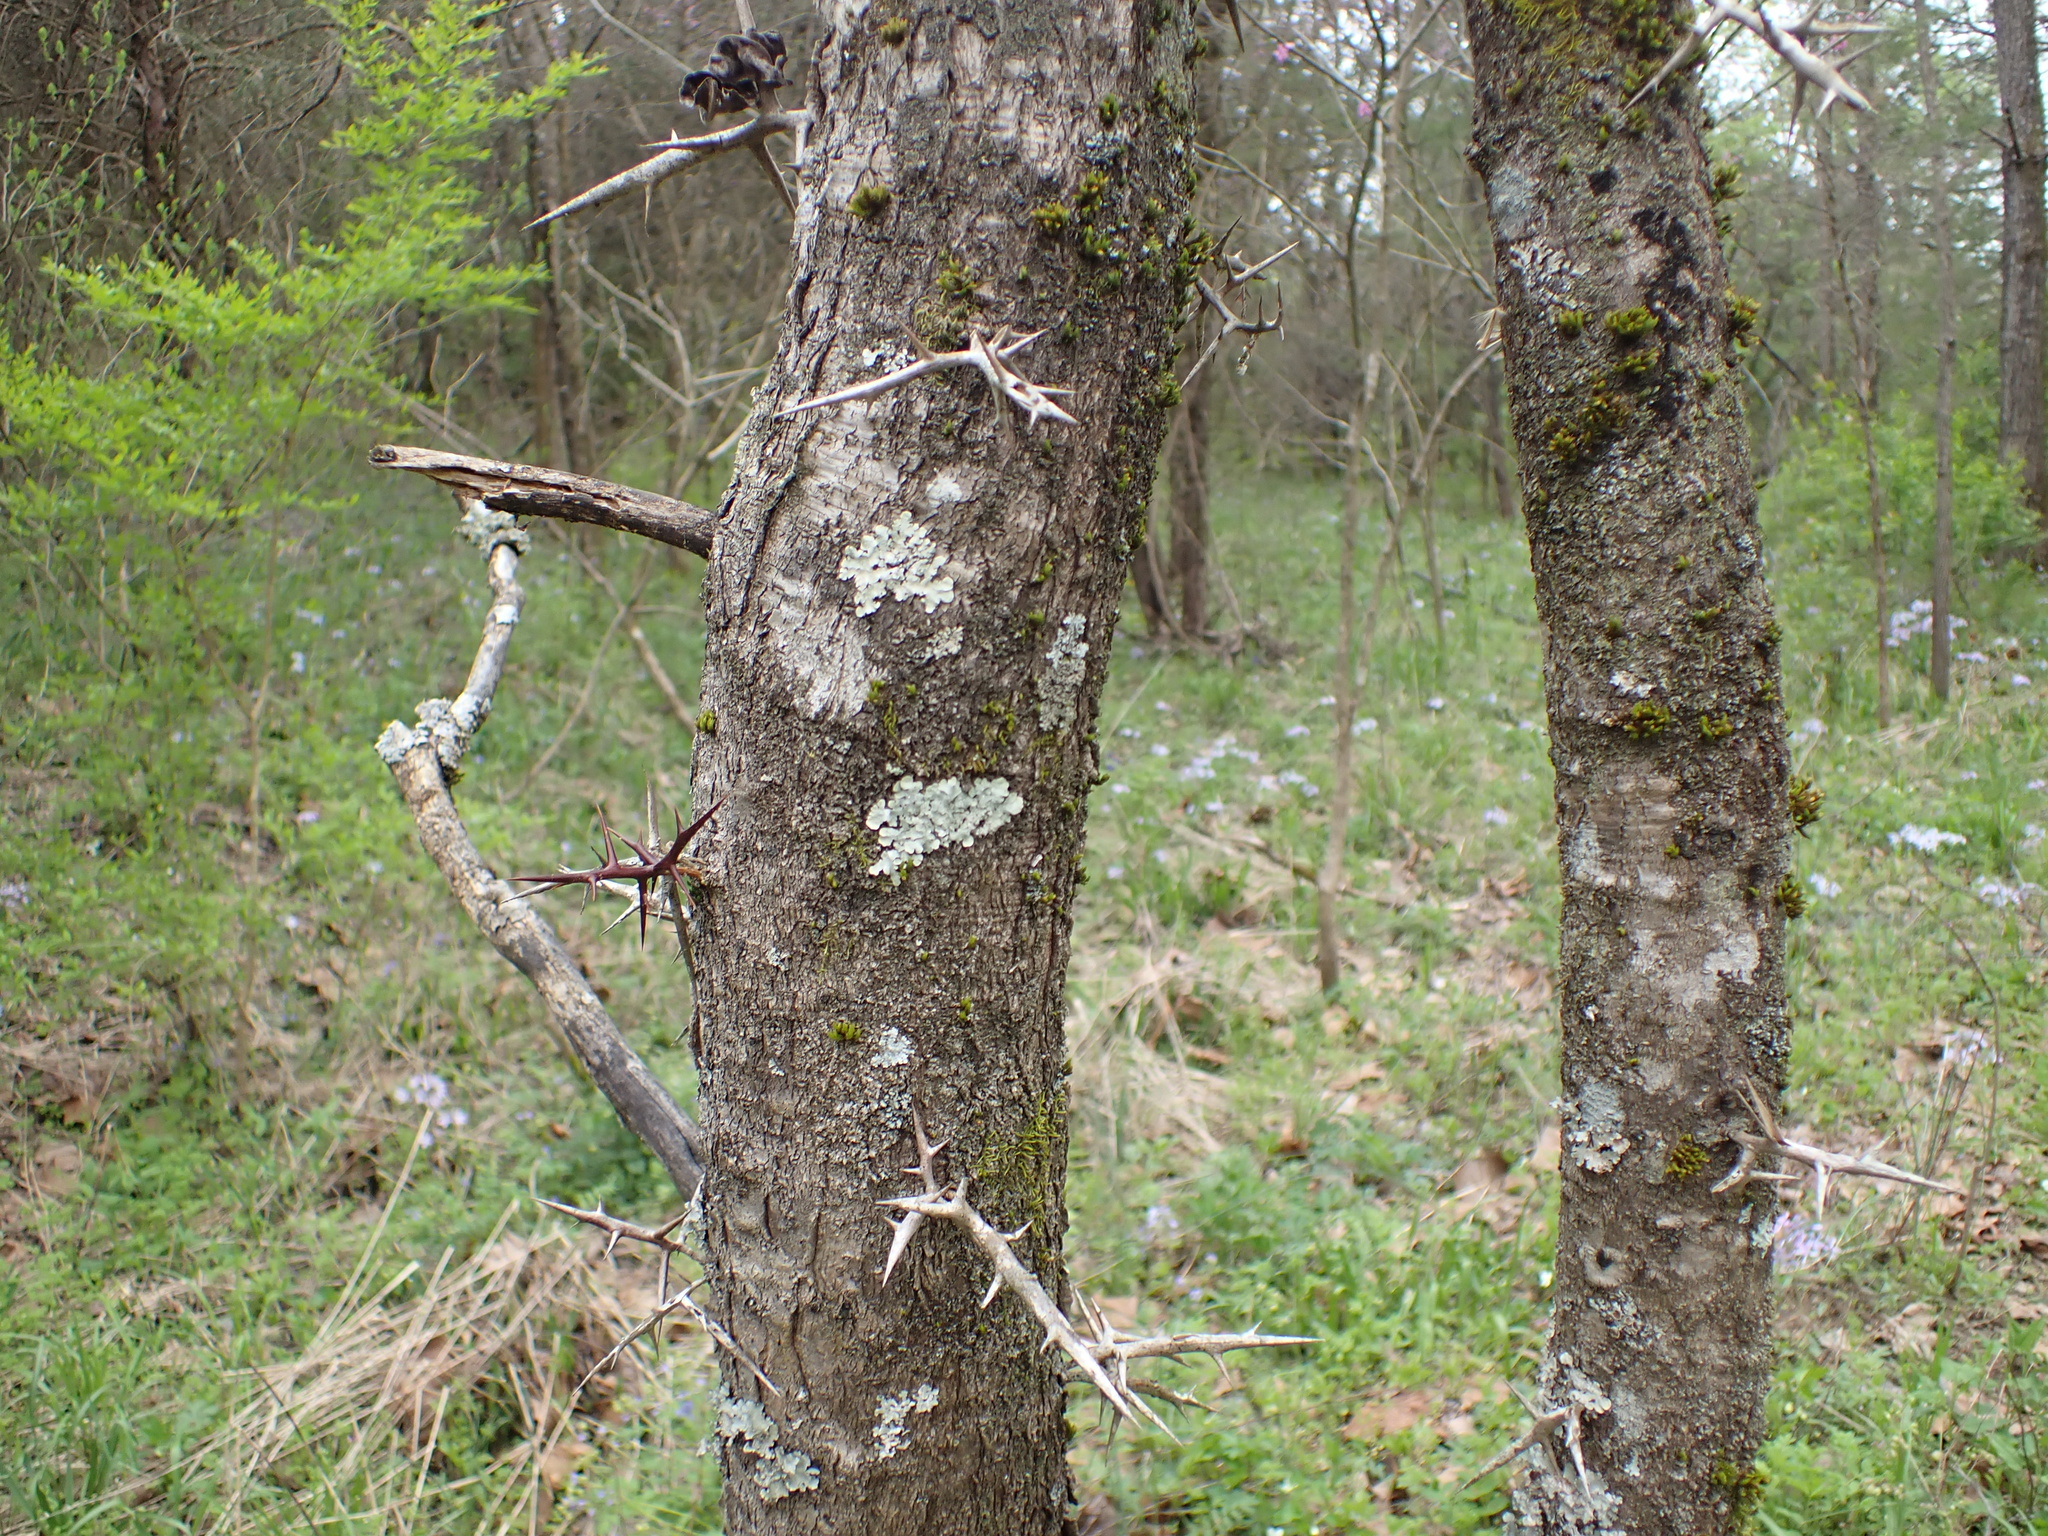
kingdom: Plantae
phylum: Tracheophyta
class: Magnoliopsida
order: Fabales
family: Fabaceae
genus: Gleditsia
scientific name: Gleditsia triacanthos
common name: Common honeylocust
